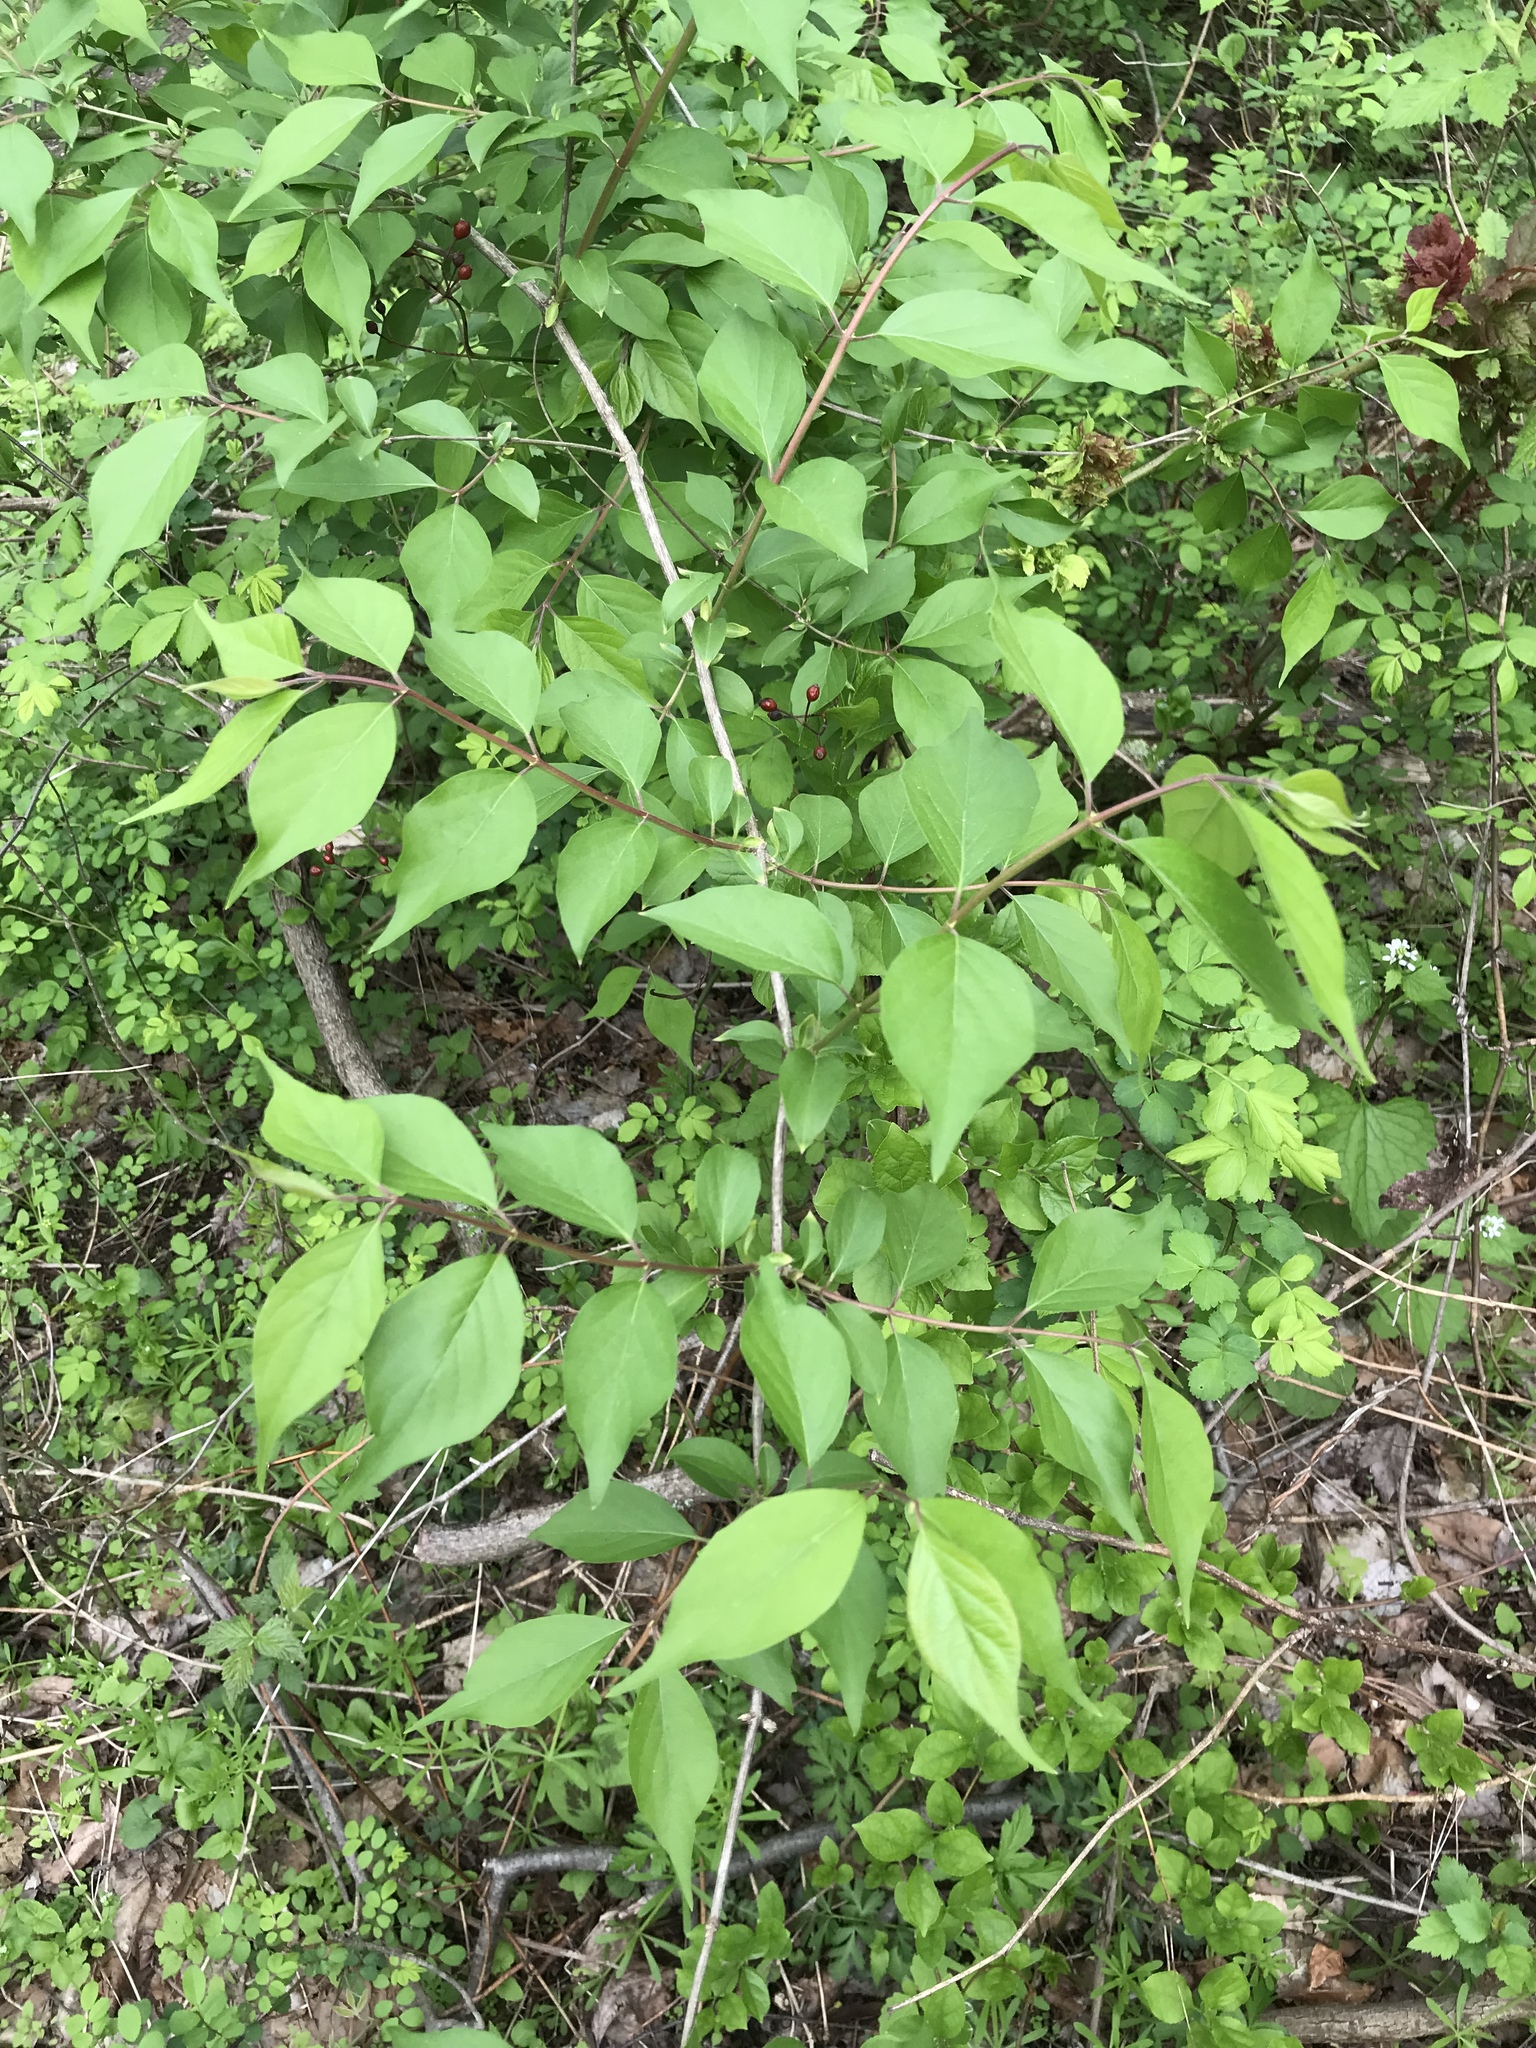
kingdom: Plantae
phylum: Tracheophyta
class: Magnoliopsida
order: Dipsacales
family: Caprifoliaceae
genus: Lonicera
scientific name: Lonicera maackii
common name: Amur honeysuckle
